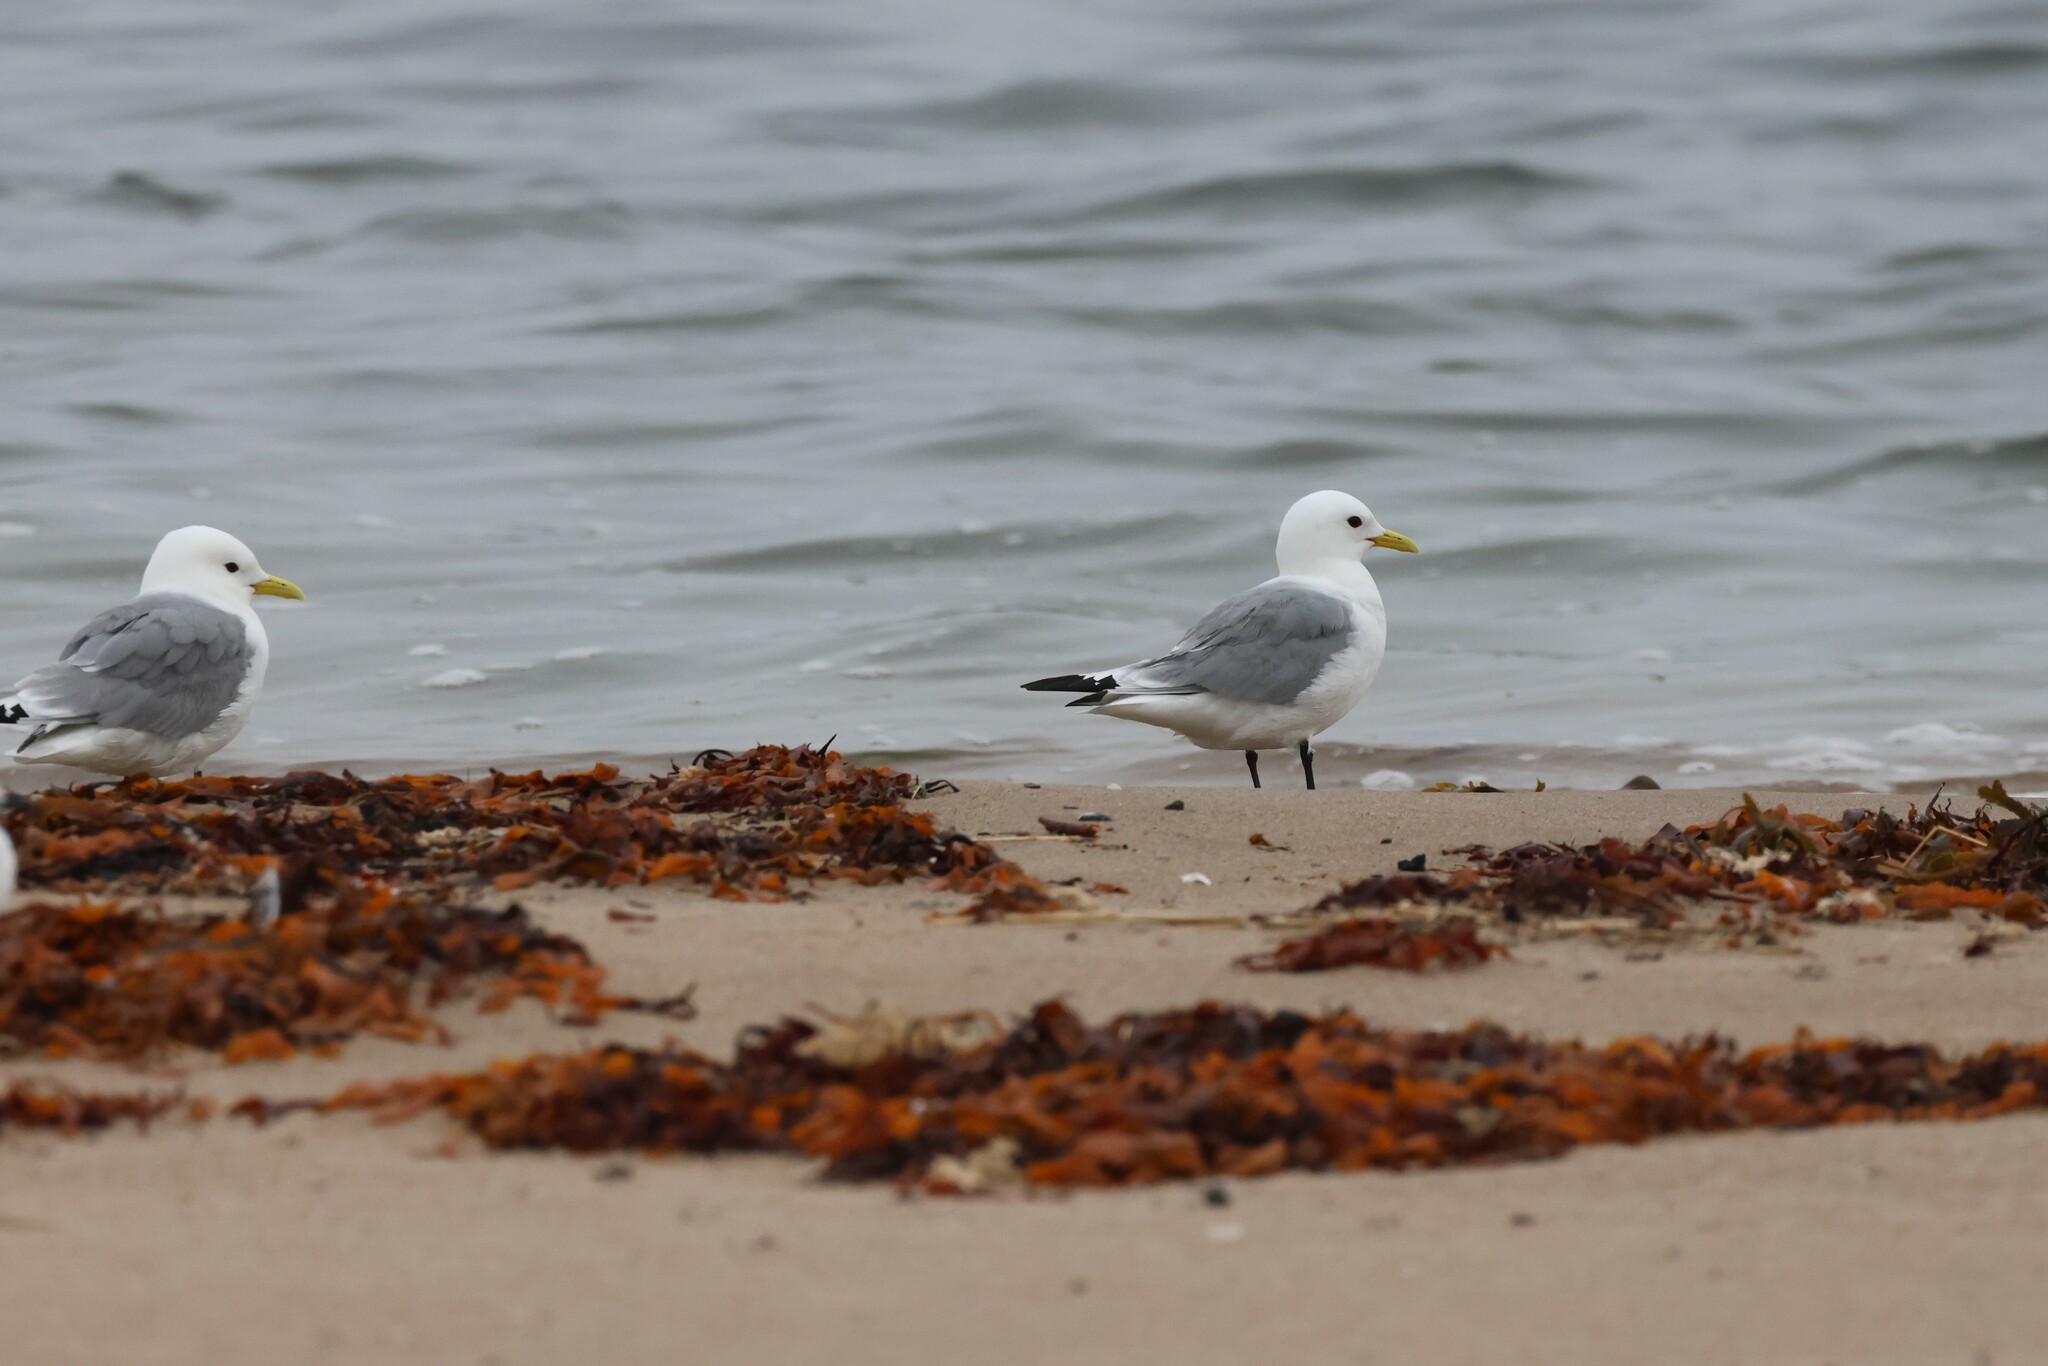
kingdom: Animalia
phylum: Chordata
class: Aves
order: Charadriiformes
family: Laridae
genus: Rissa
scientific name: Rissa tridactyla
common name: Black-legged kittiwake
